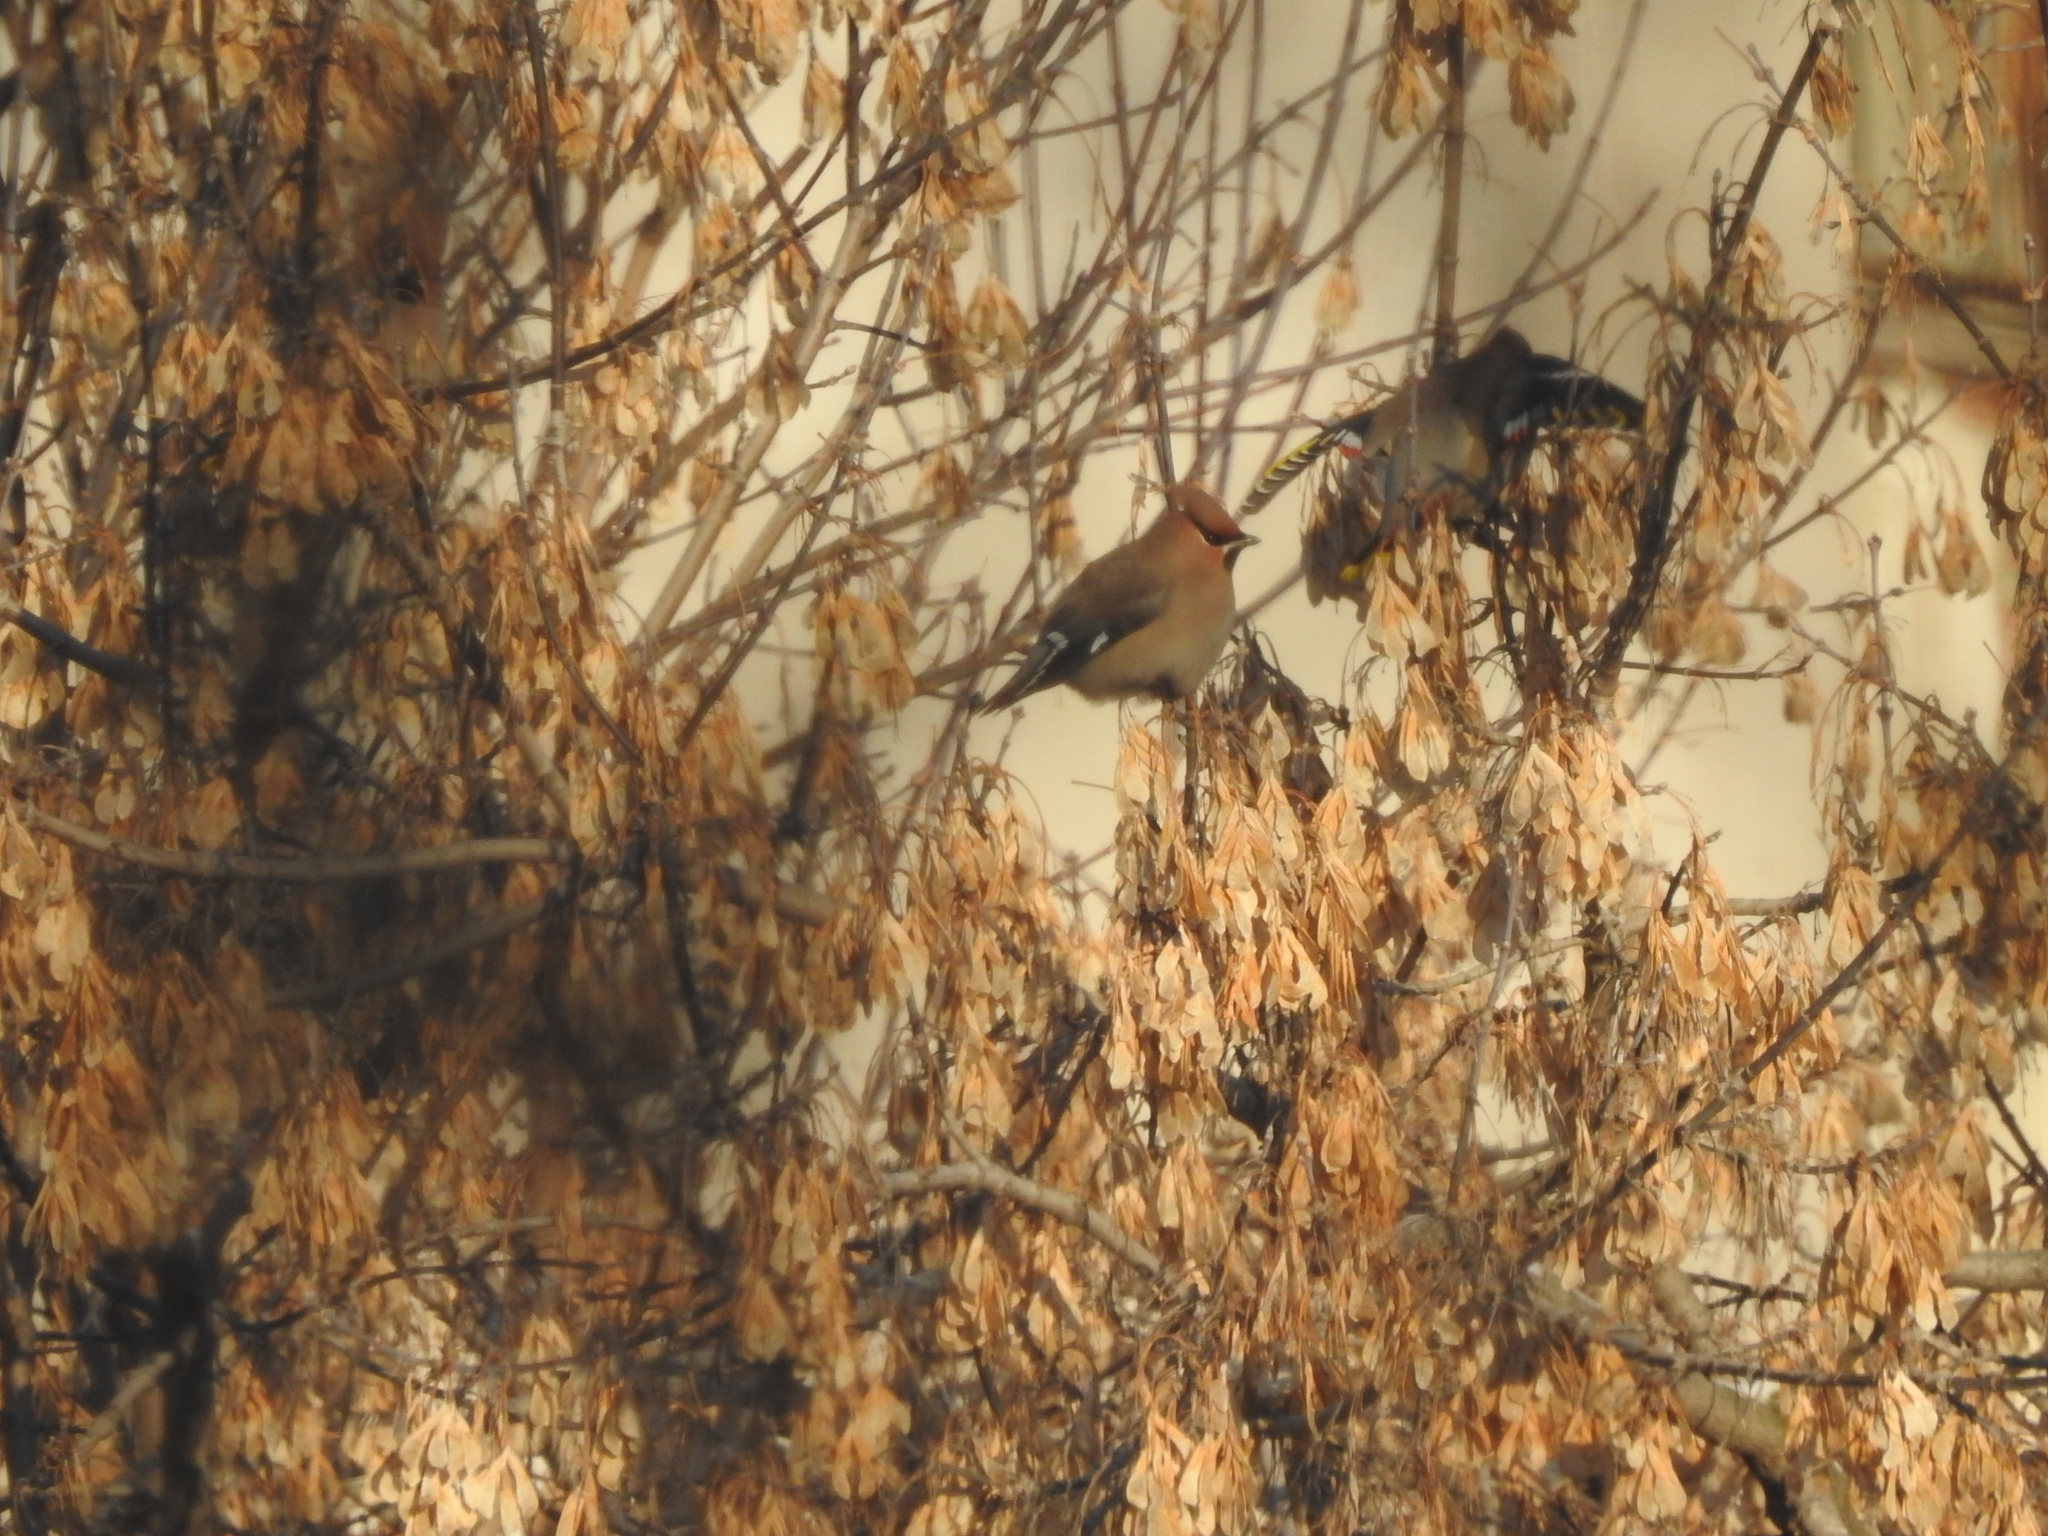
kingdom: Animalia
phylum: Chordata
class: Aves
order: Passeriformes
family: Bombycillidae
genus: Bombycilla
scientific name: Bombycilla garrulus
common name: Bohemian waxwing
